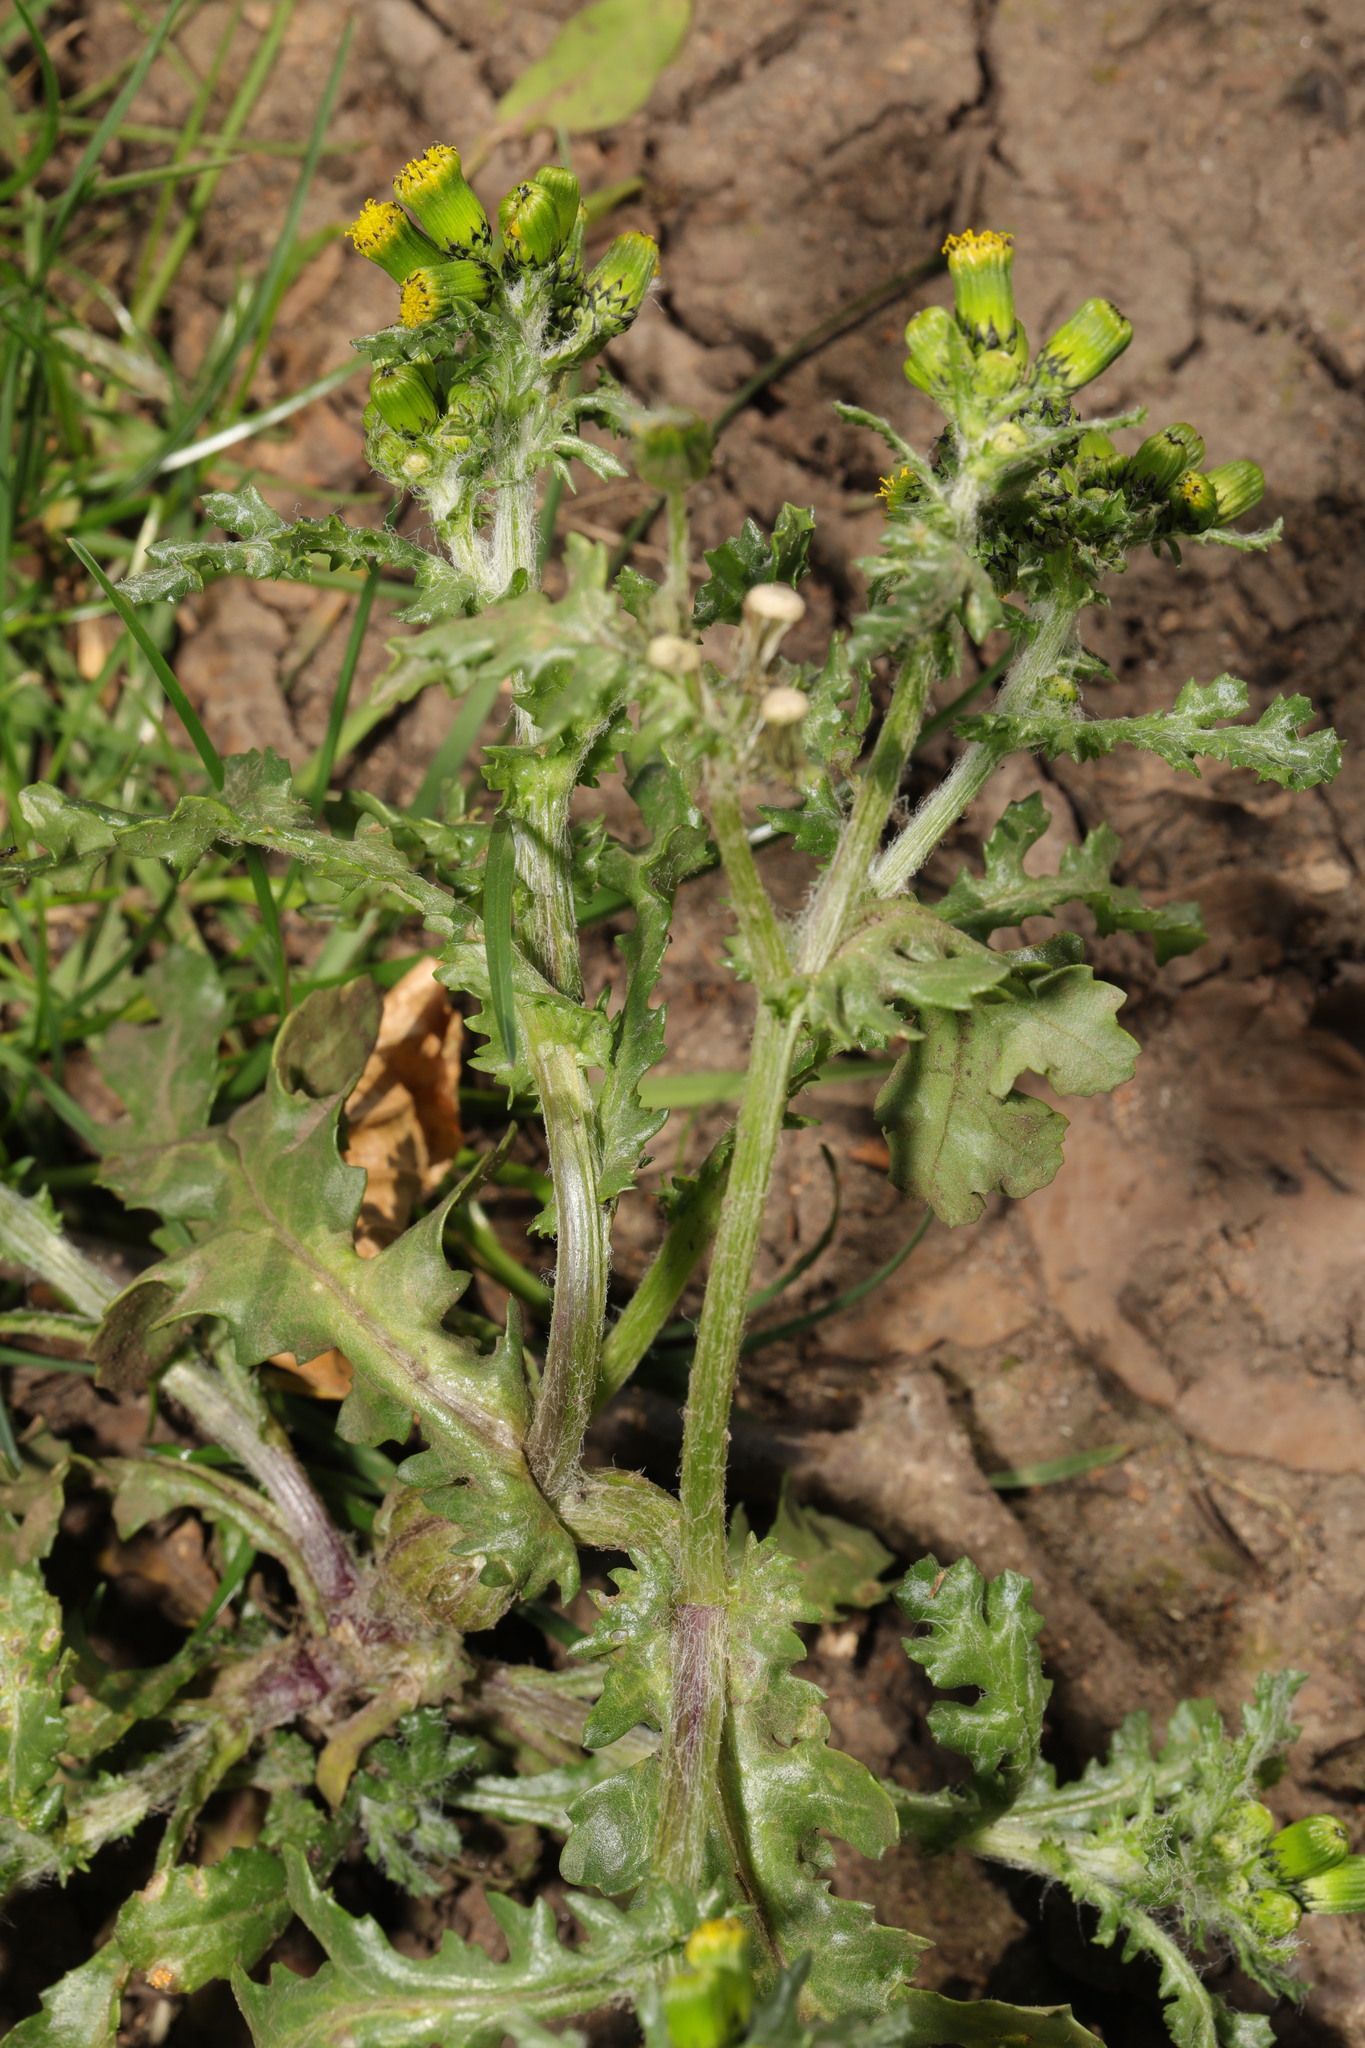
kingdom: Plantae
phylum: Tracheophyta
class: Magnoliopsida
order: Asterales
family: Asteraceae
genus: Senecio
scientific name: Senecio vulgaris
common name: Old-man-in-the-spring
